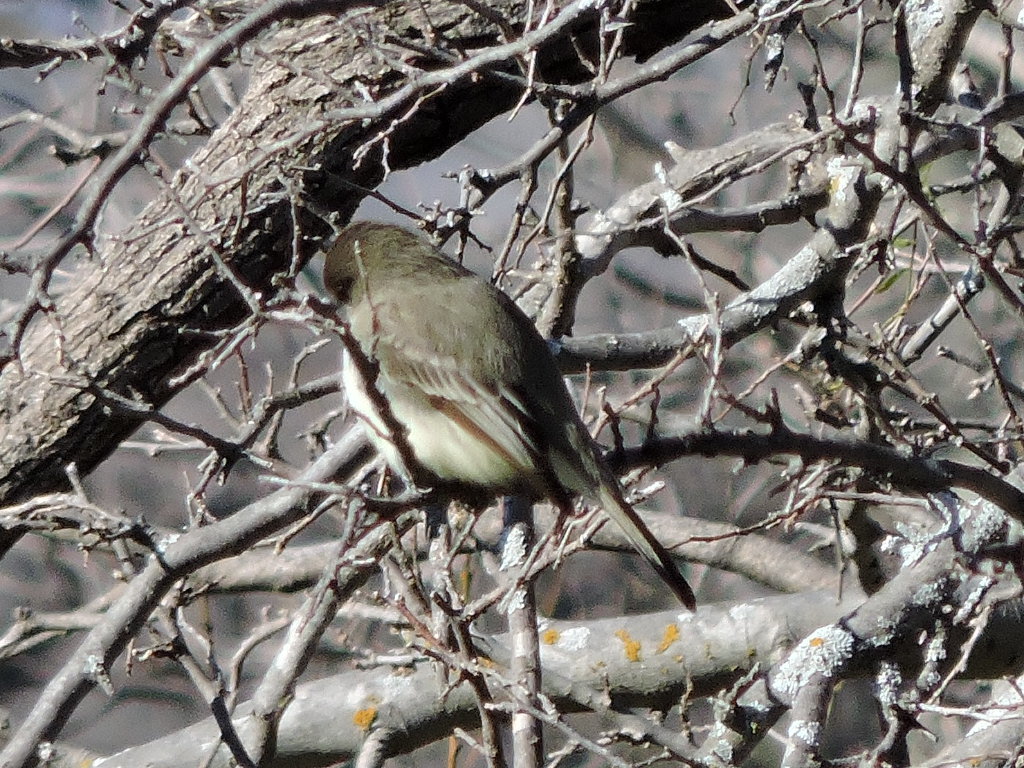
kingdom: Animalia
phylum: Chordata
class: Aves
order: Passeriformes
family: Tyrannidae
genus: Sayornis
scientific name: Sayornis phoebe
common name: Eastern phoebe
